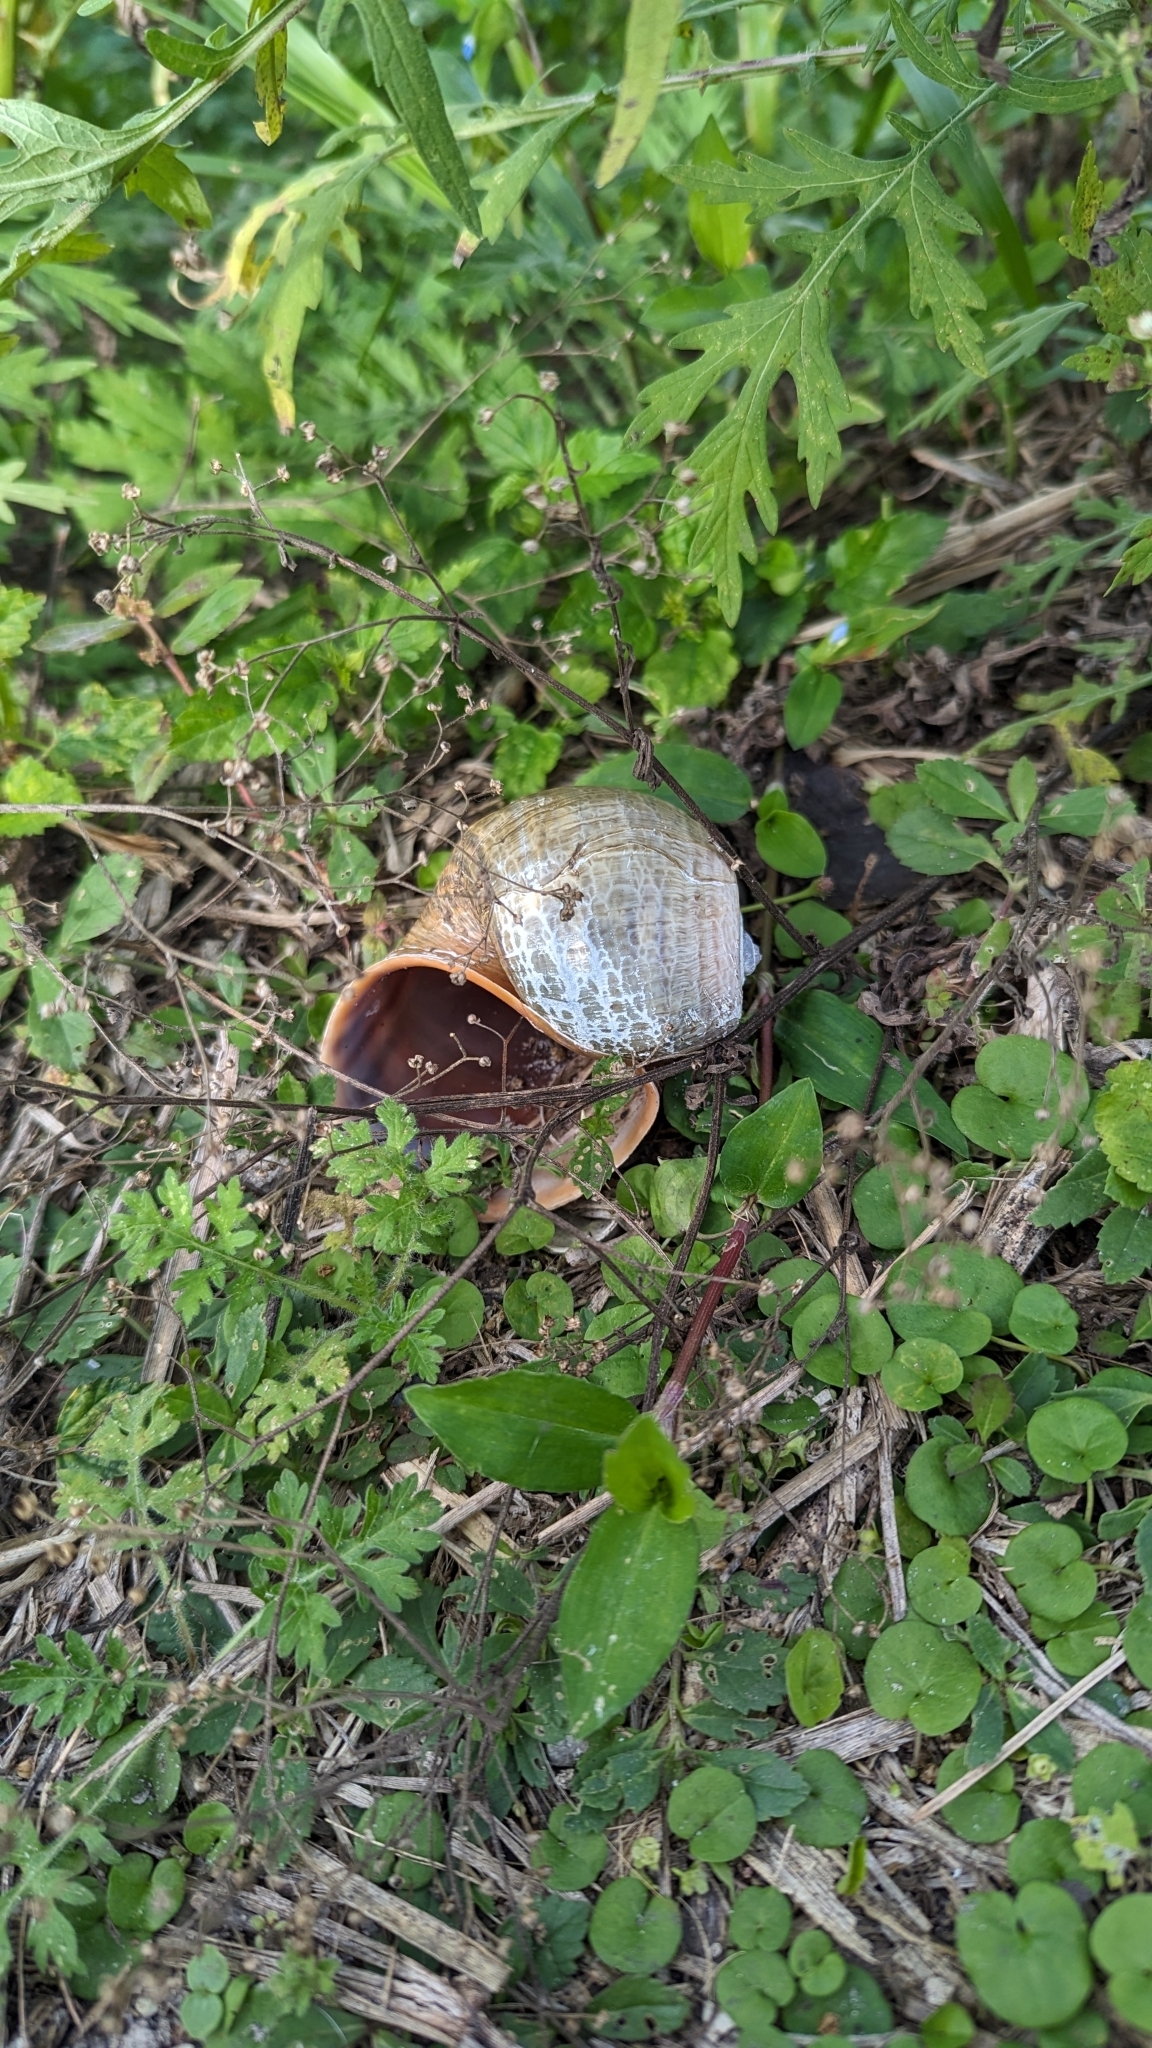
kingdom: Animalia
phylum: Mollusca
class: Gastropoda
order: Architaenioglossa
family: Ampullariidae
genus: Pomacea
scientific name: Pomacea maculata
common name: Giant applesnail
